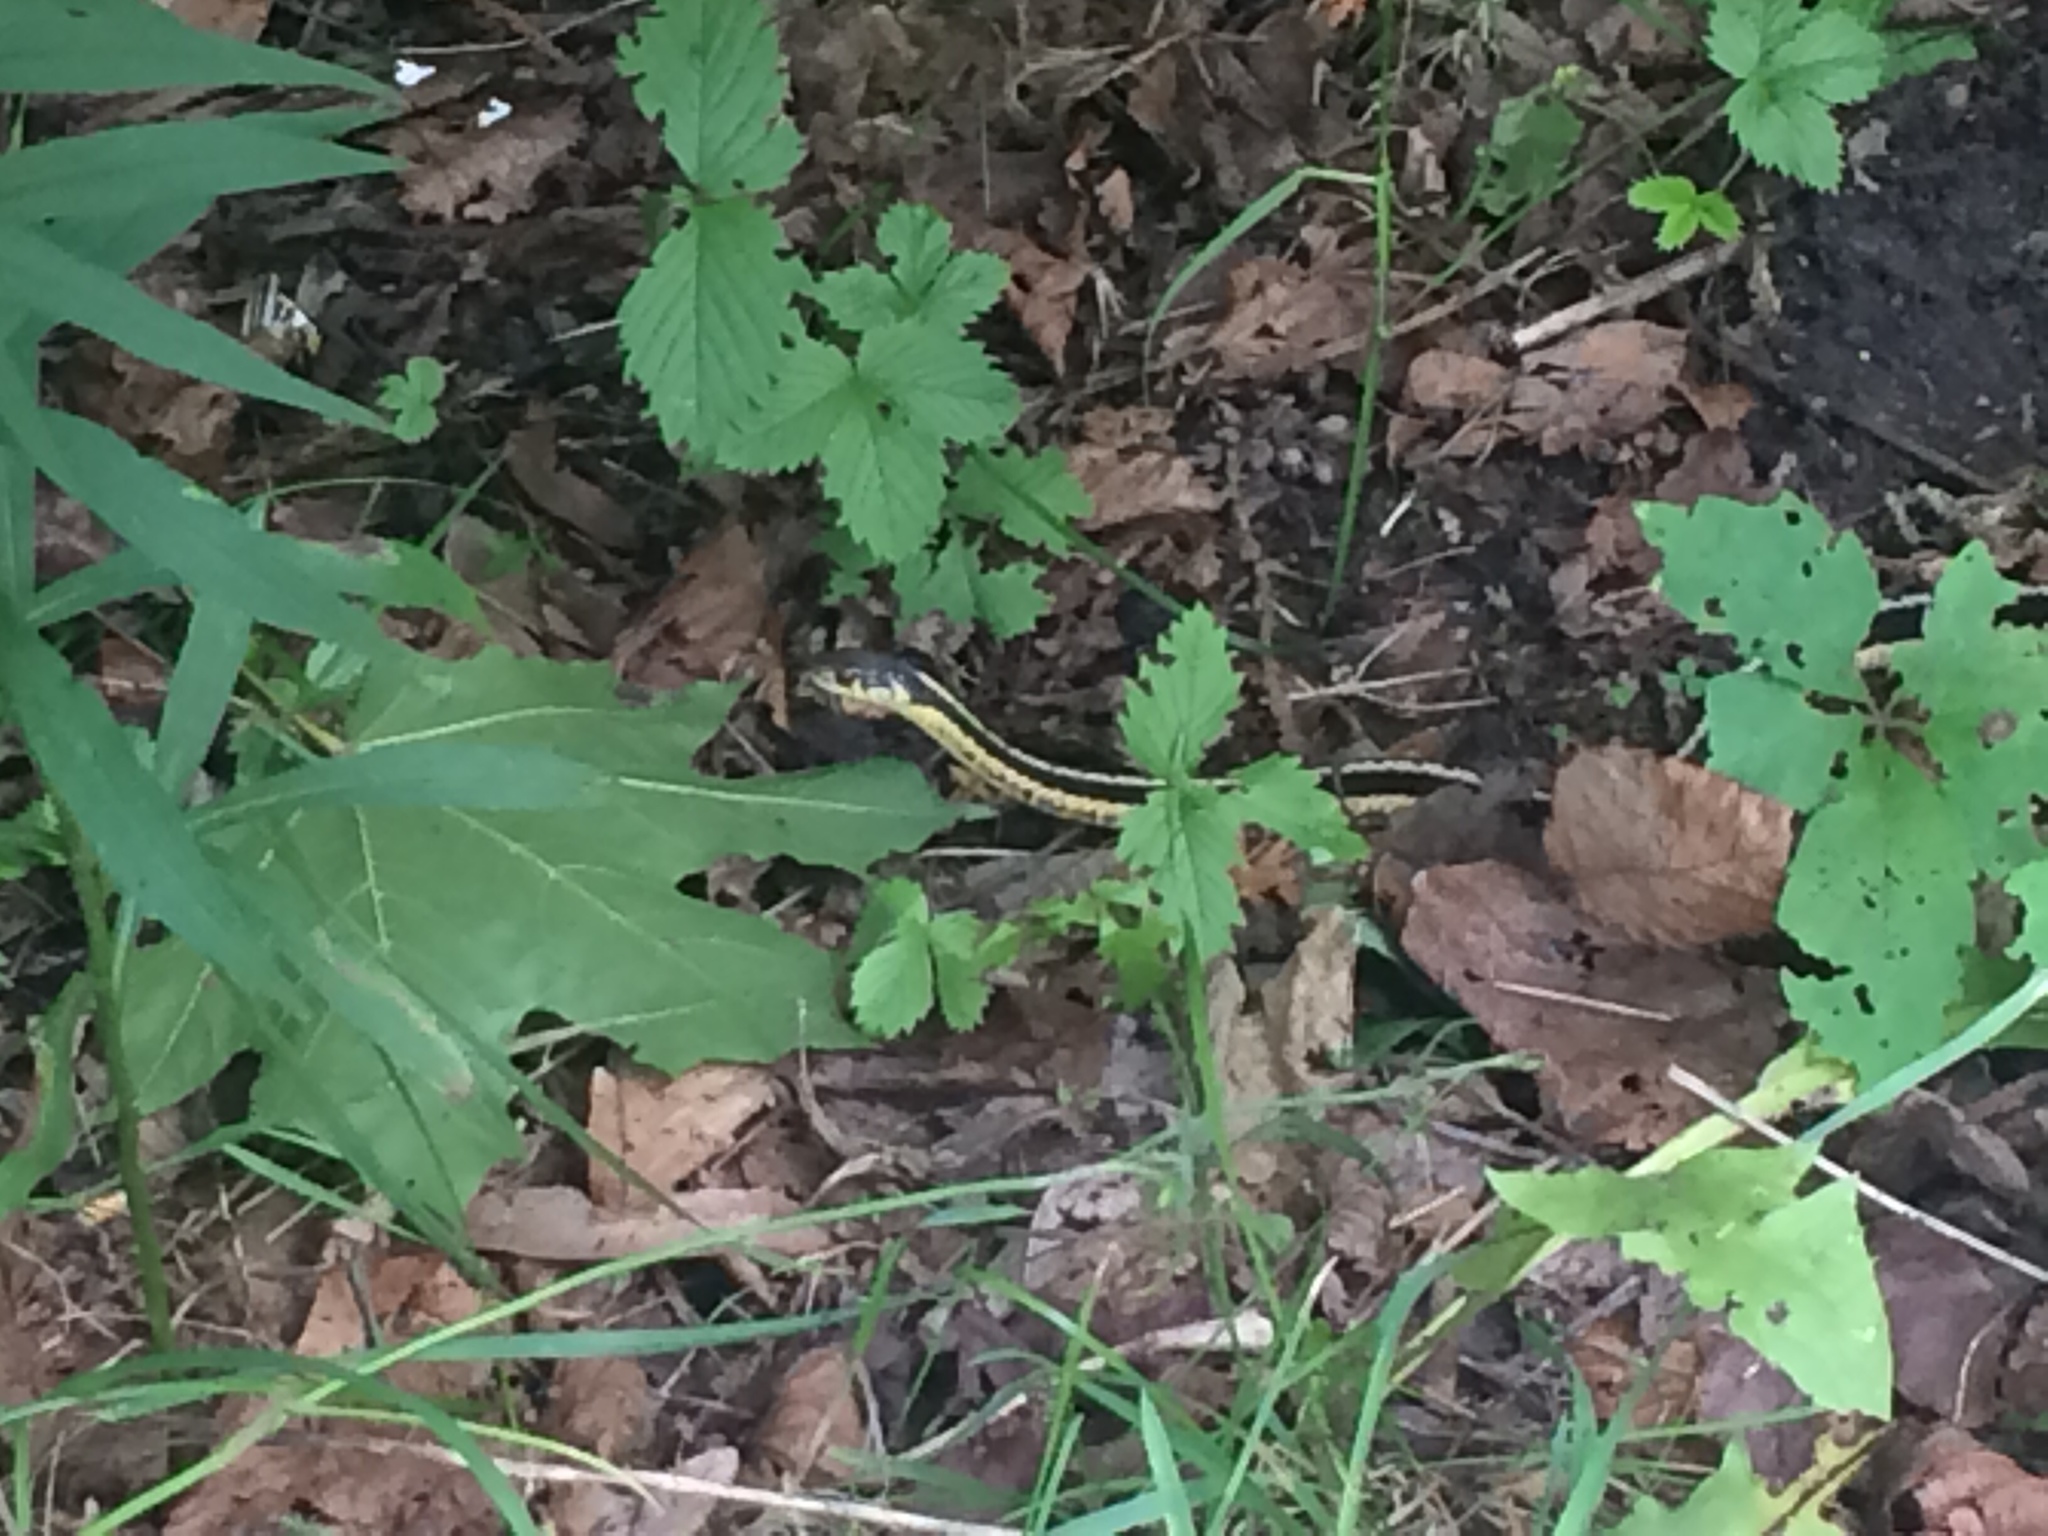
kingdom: Animalia
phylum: Chordata
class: Squamata
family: Colubridae
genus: Thamnophis
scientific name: Thamnophis sirtalis
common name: Common garter snake
